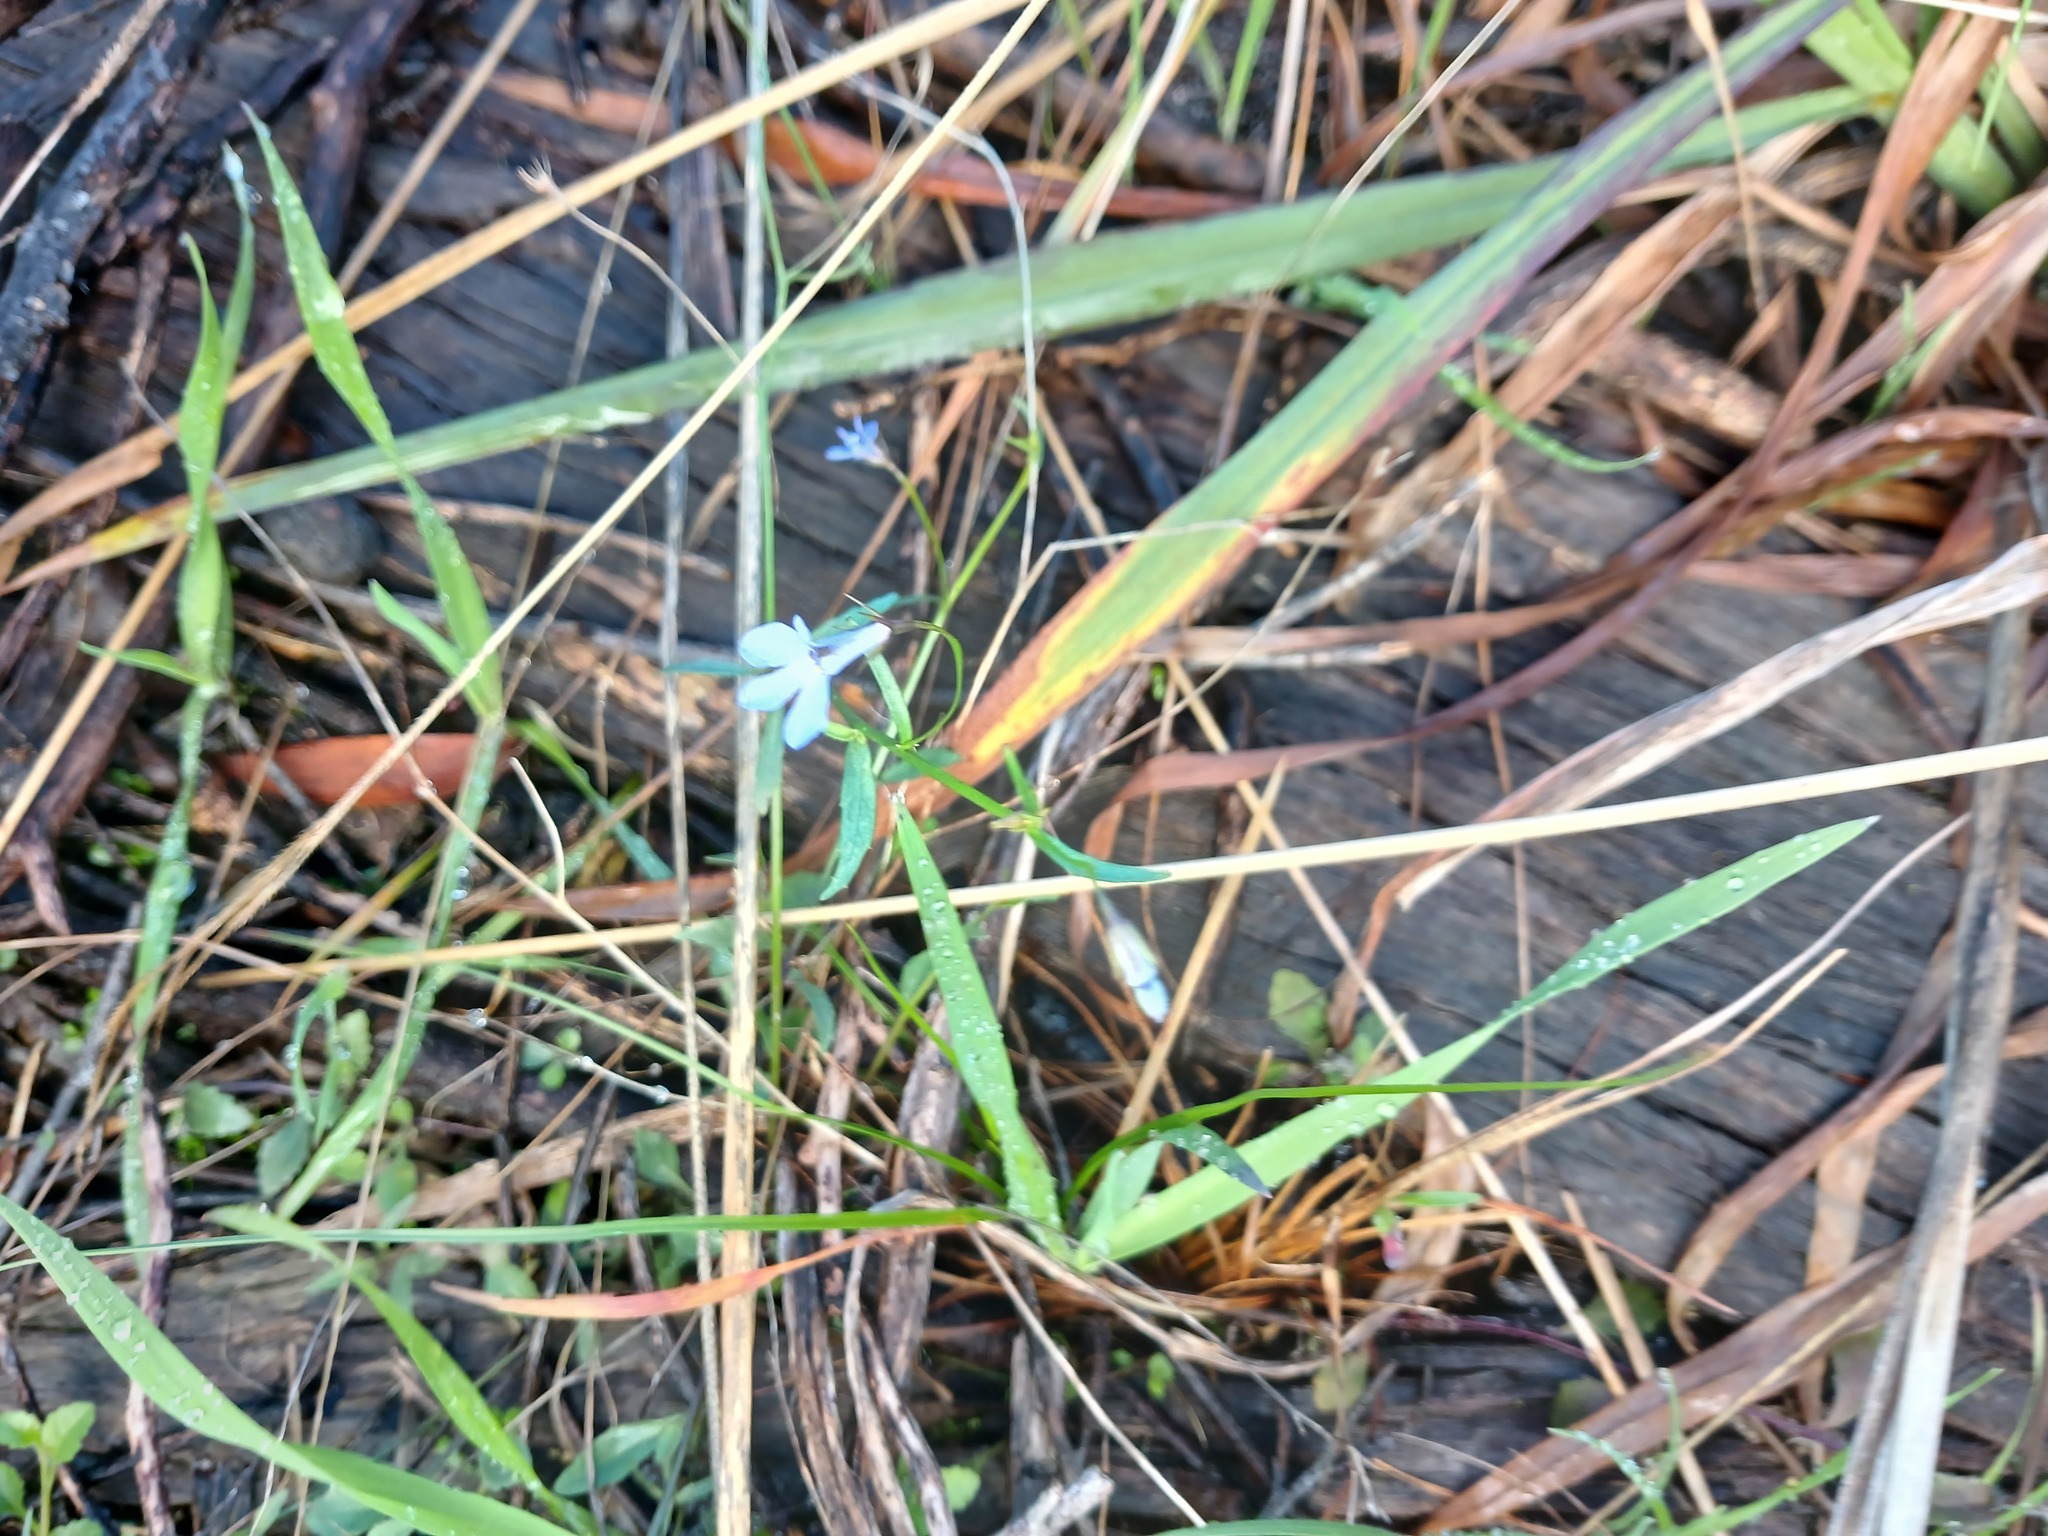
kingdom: Plantae
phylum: Tracheophyta
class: Magnoliopsida
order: Asterales
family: Campanulaceae
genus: Lobelia
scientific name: Lobelia erinus
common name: Edging lobelia
